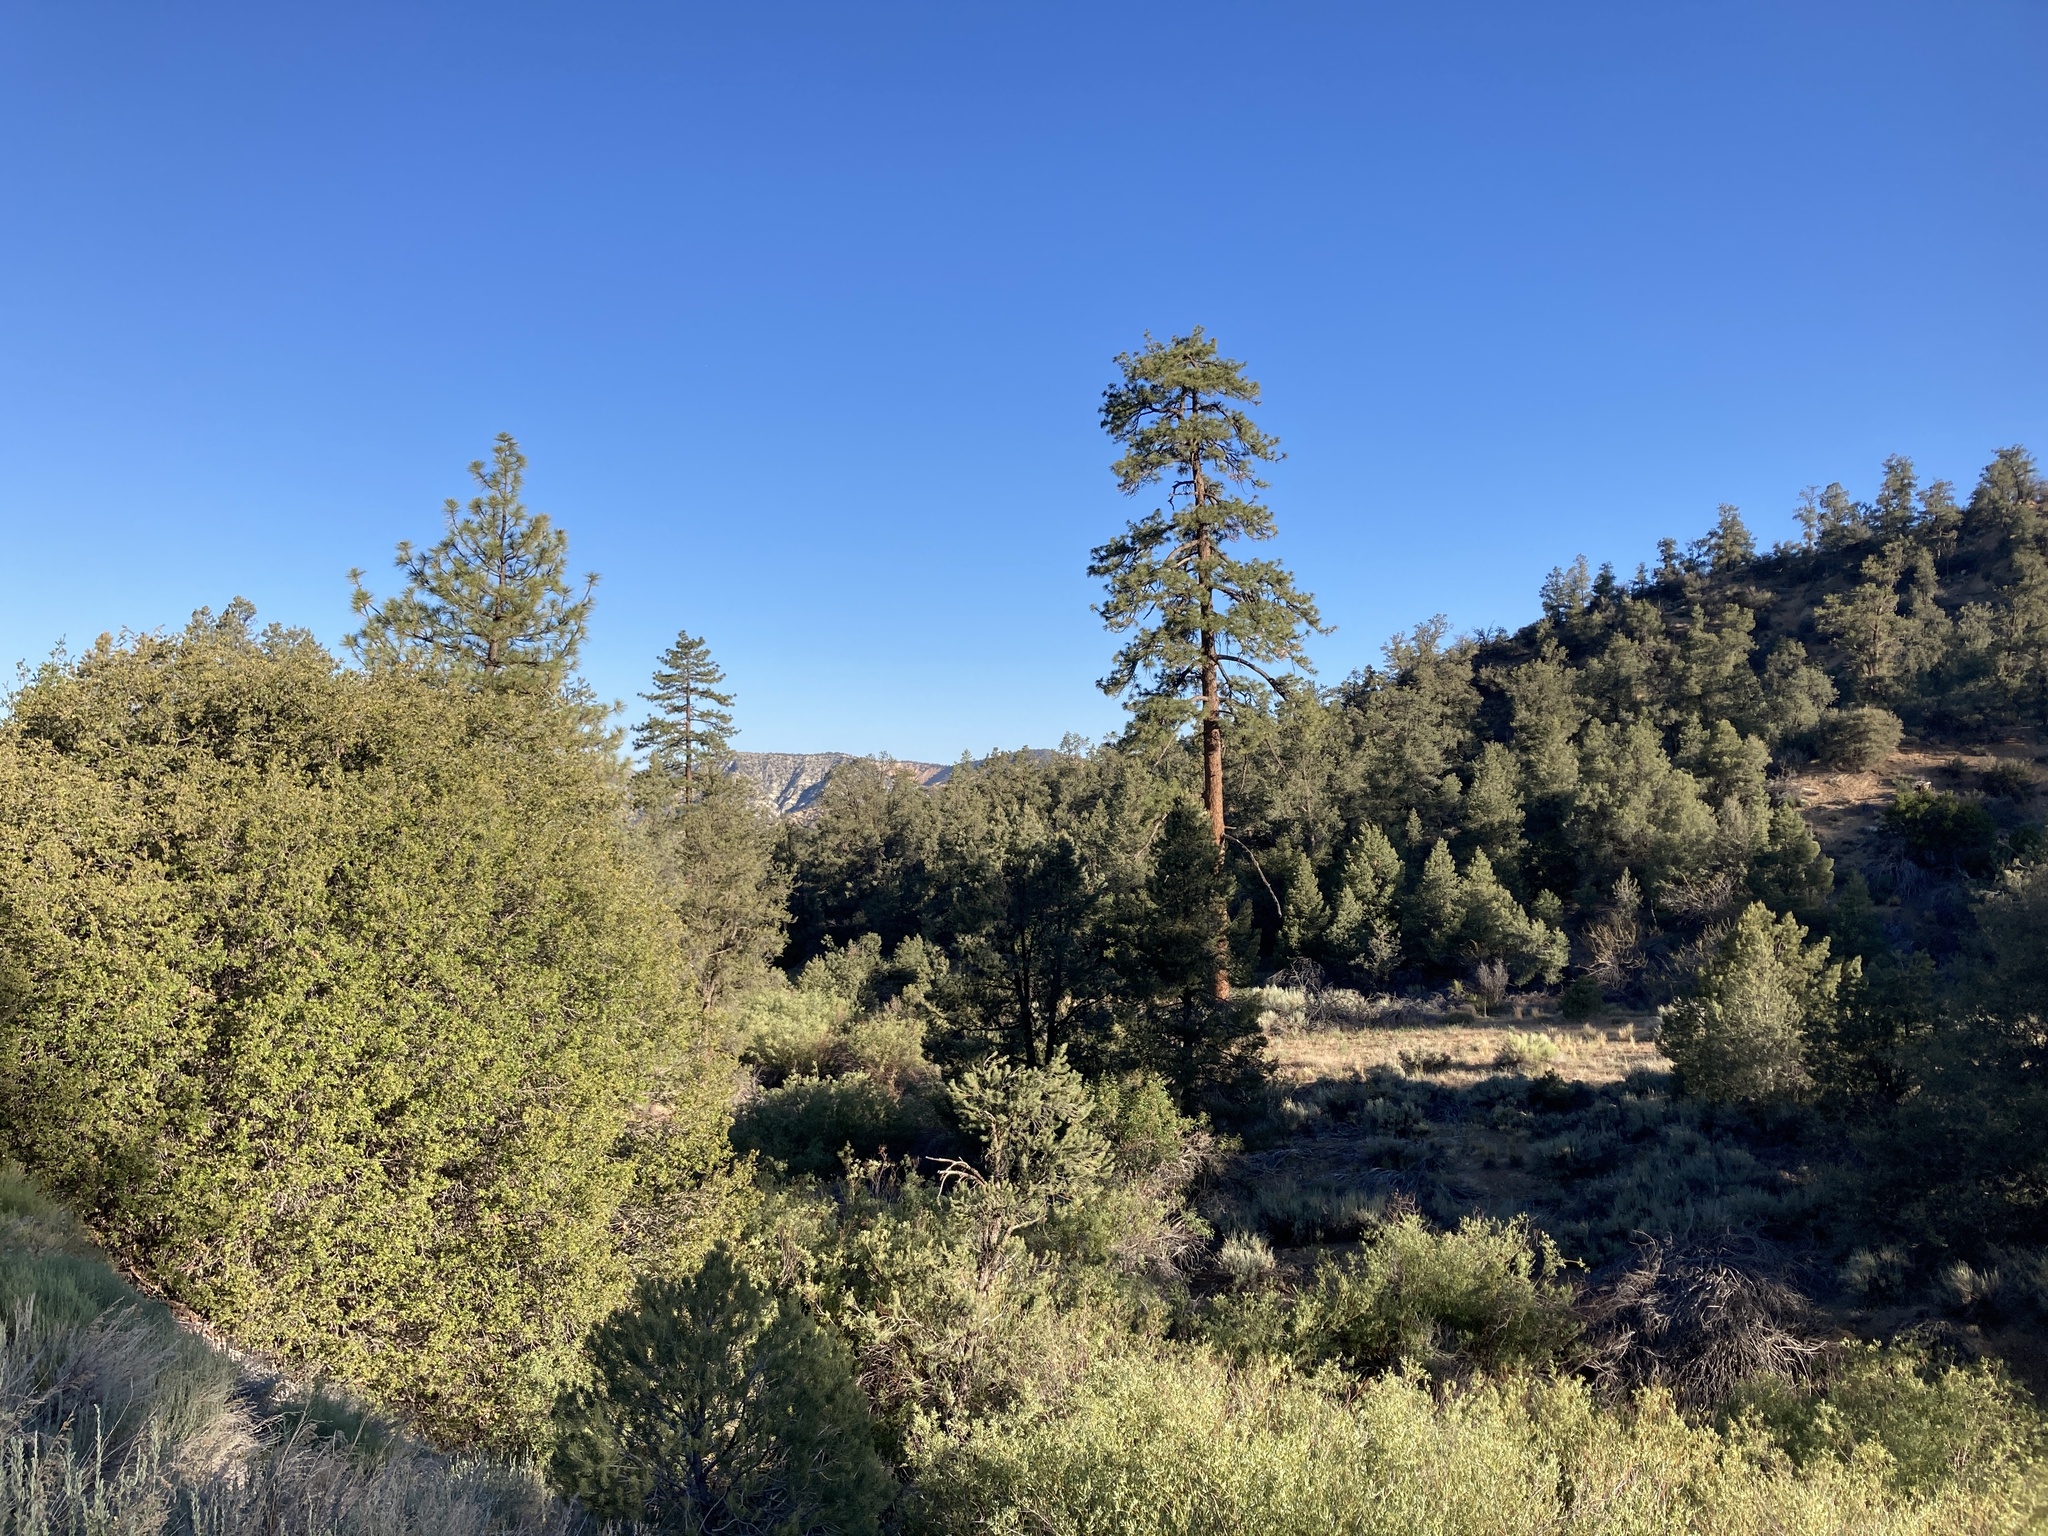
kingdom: Plantae
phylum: Tracheophyta
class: Pinopsida
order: Pinales
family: Pinaceae
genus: Pinus
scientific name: Pinus jeffreyi
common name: Jeffrey pine
